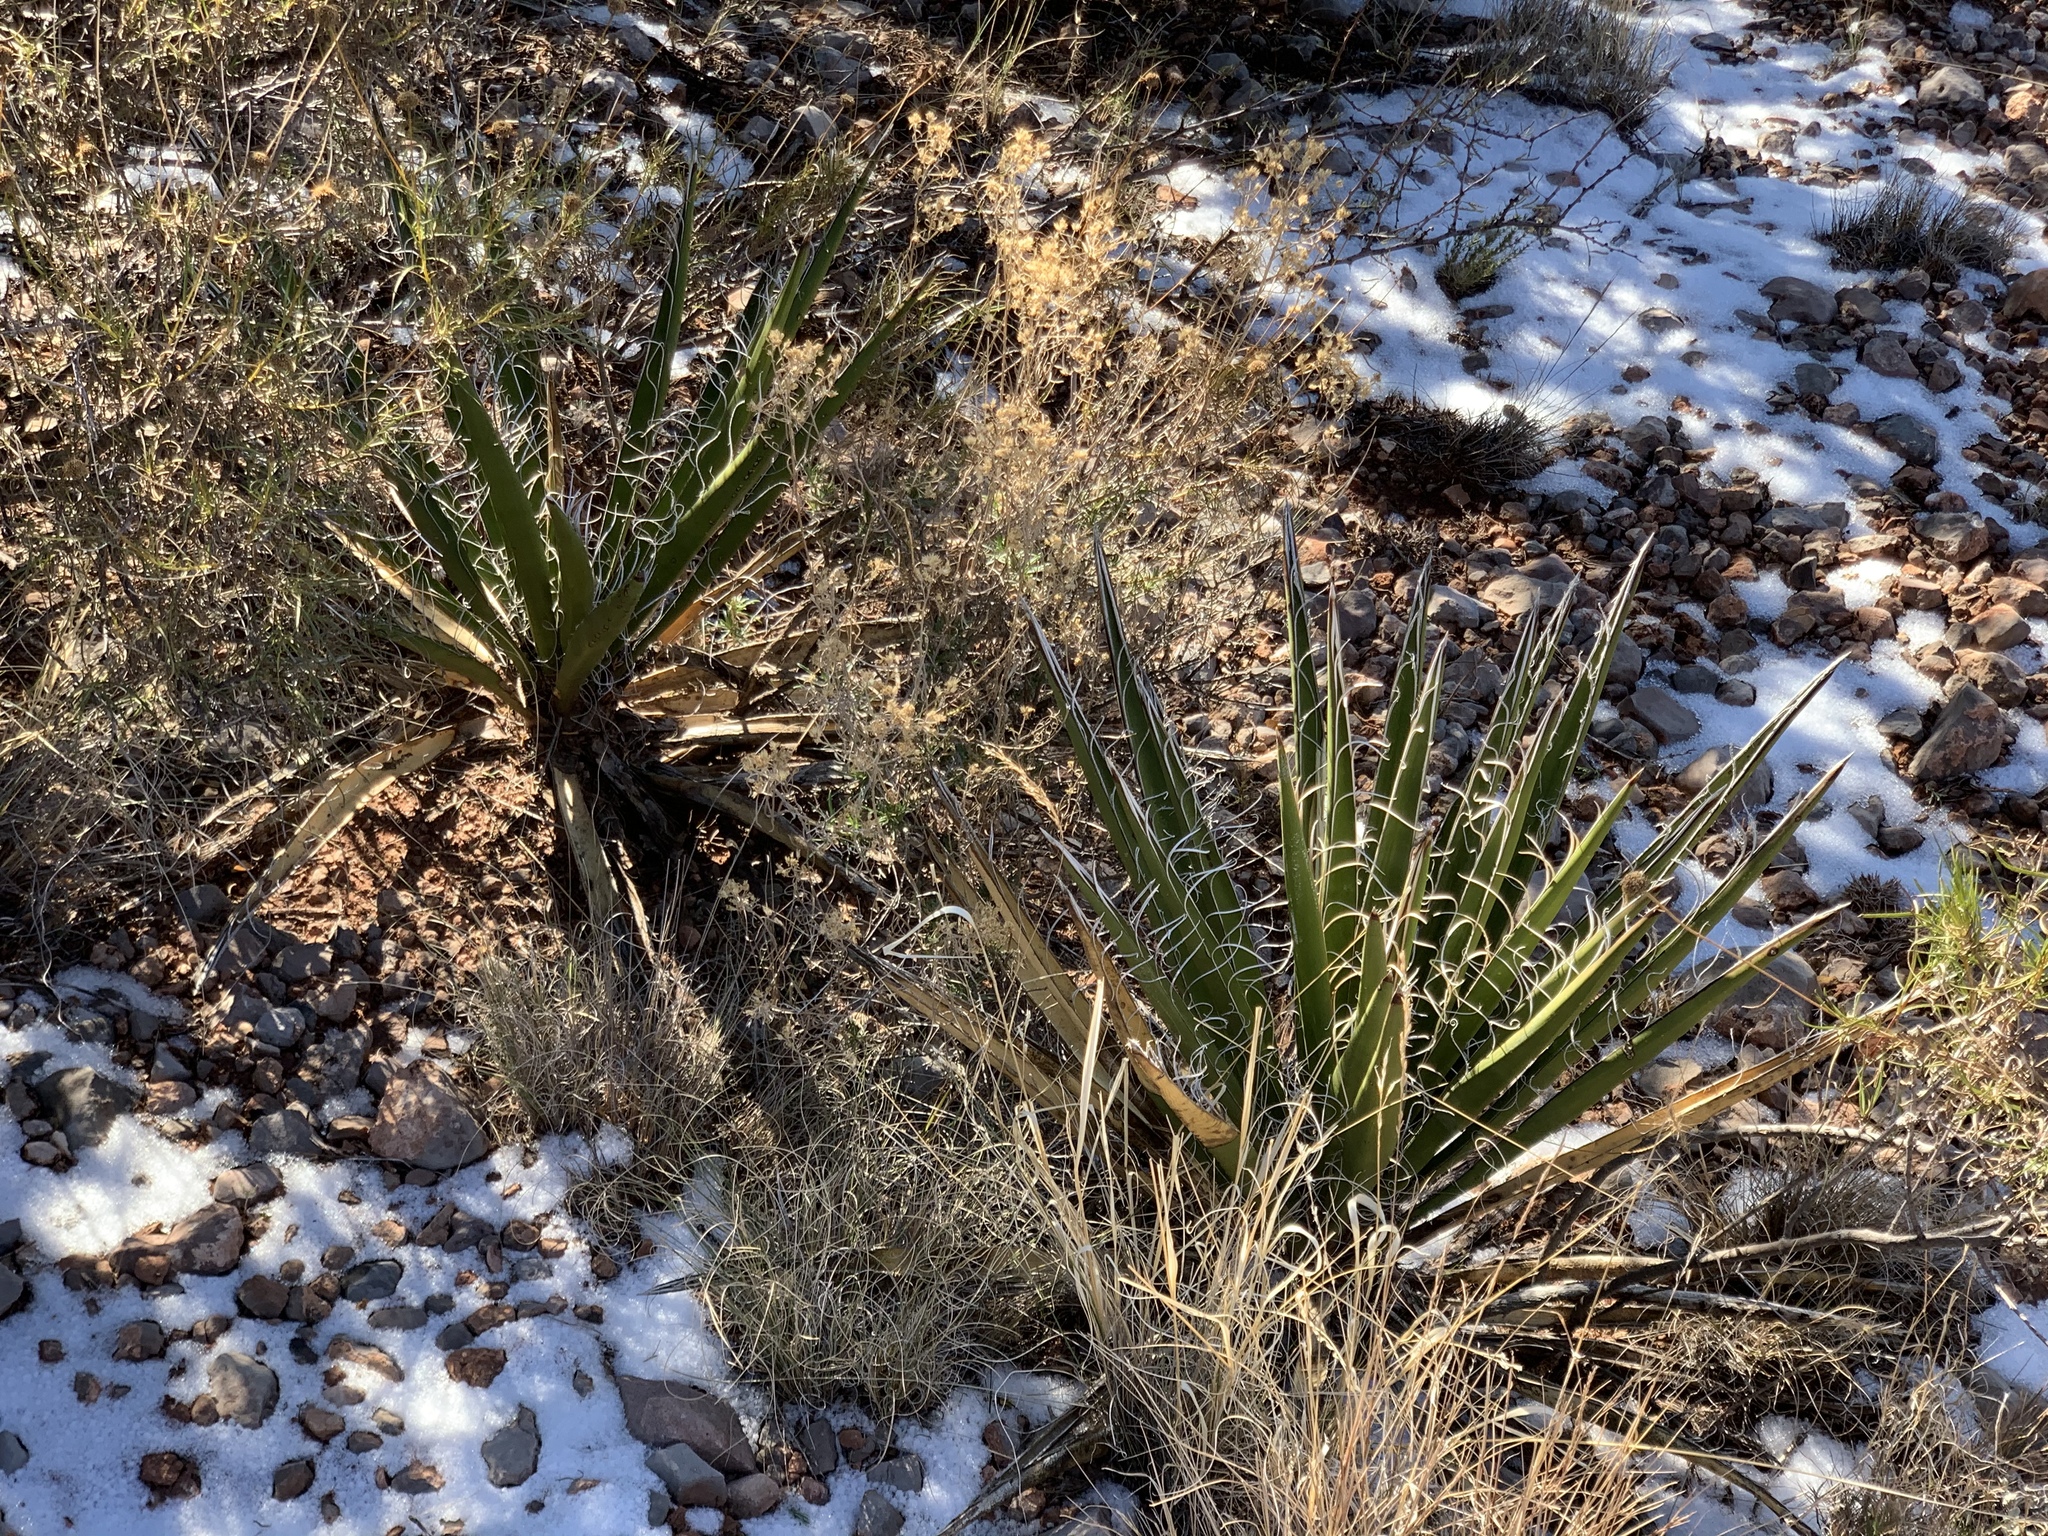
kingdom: Plantae
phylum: Tracheophyta
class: Liliopsida
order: Asparagales
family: Asparagaceae
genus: Yucca
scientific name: Yucca baccata
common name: Banana yucca
